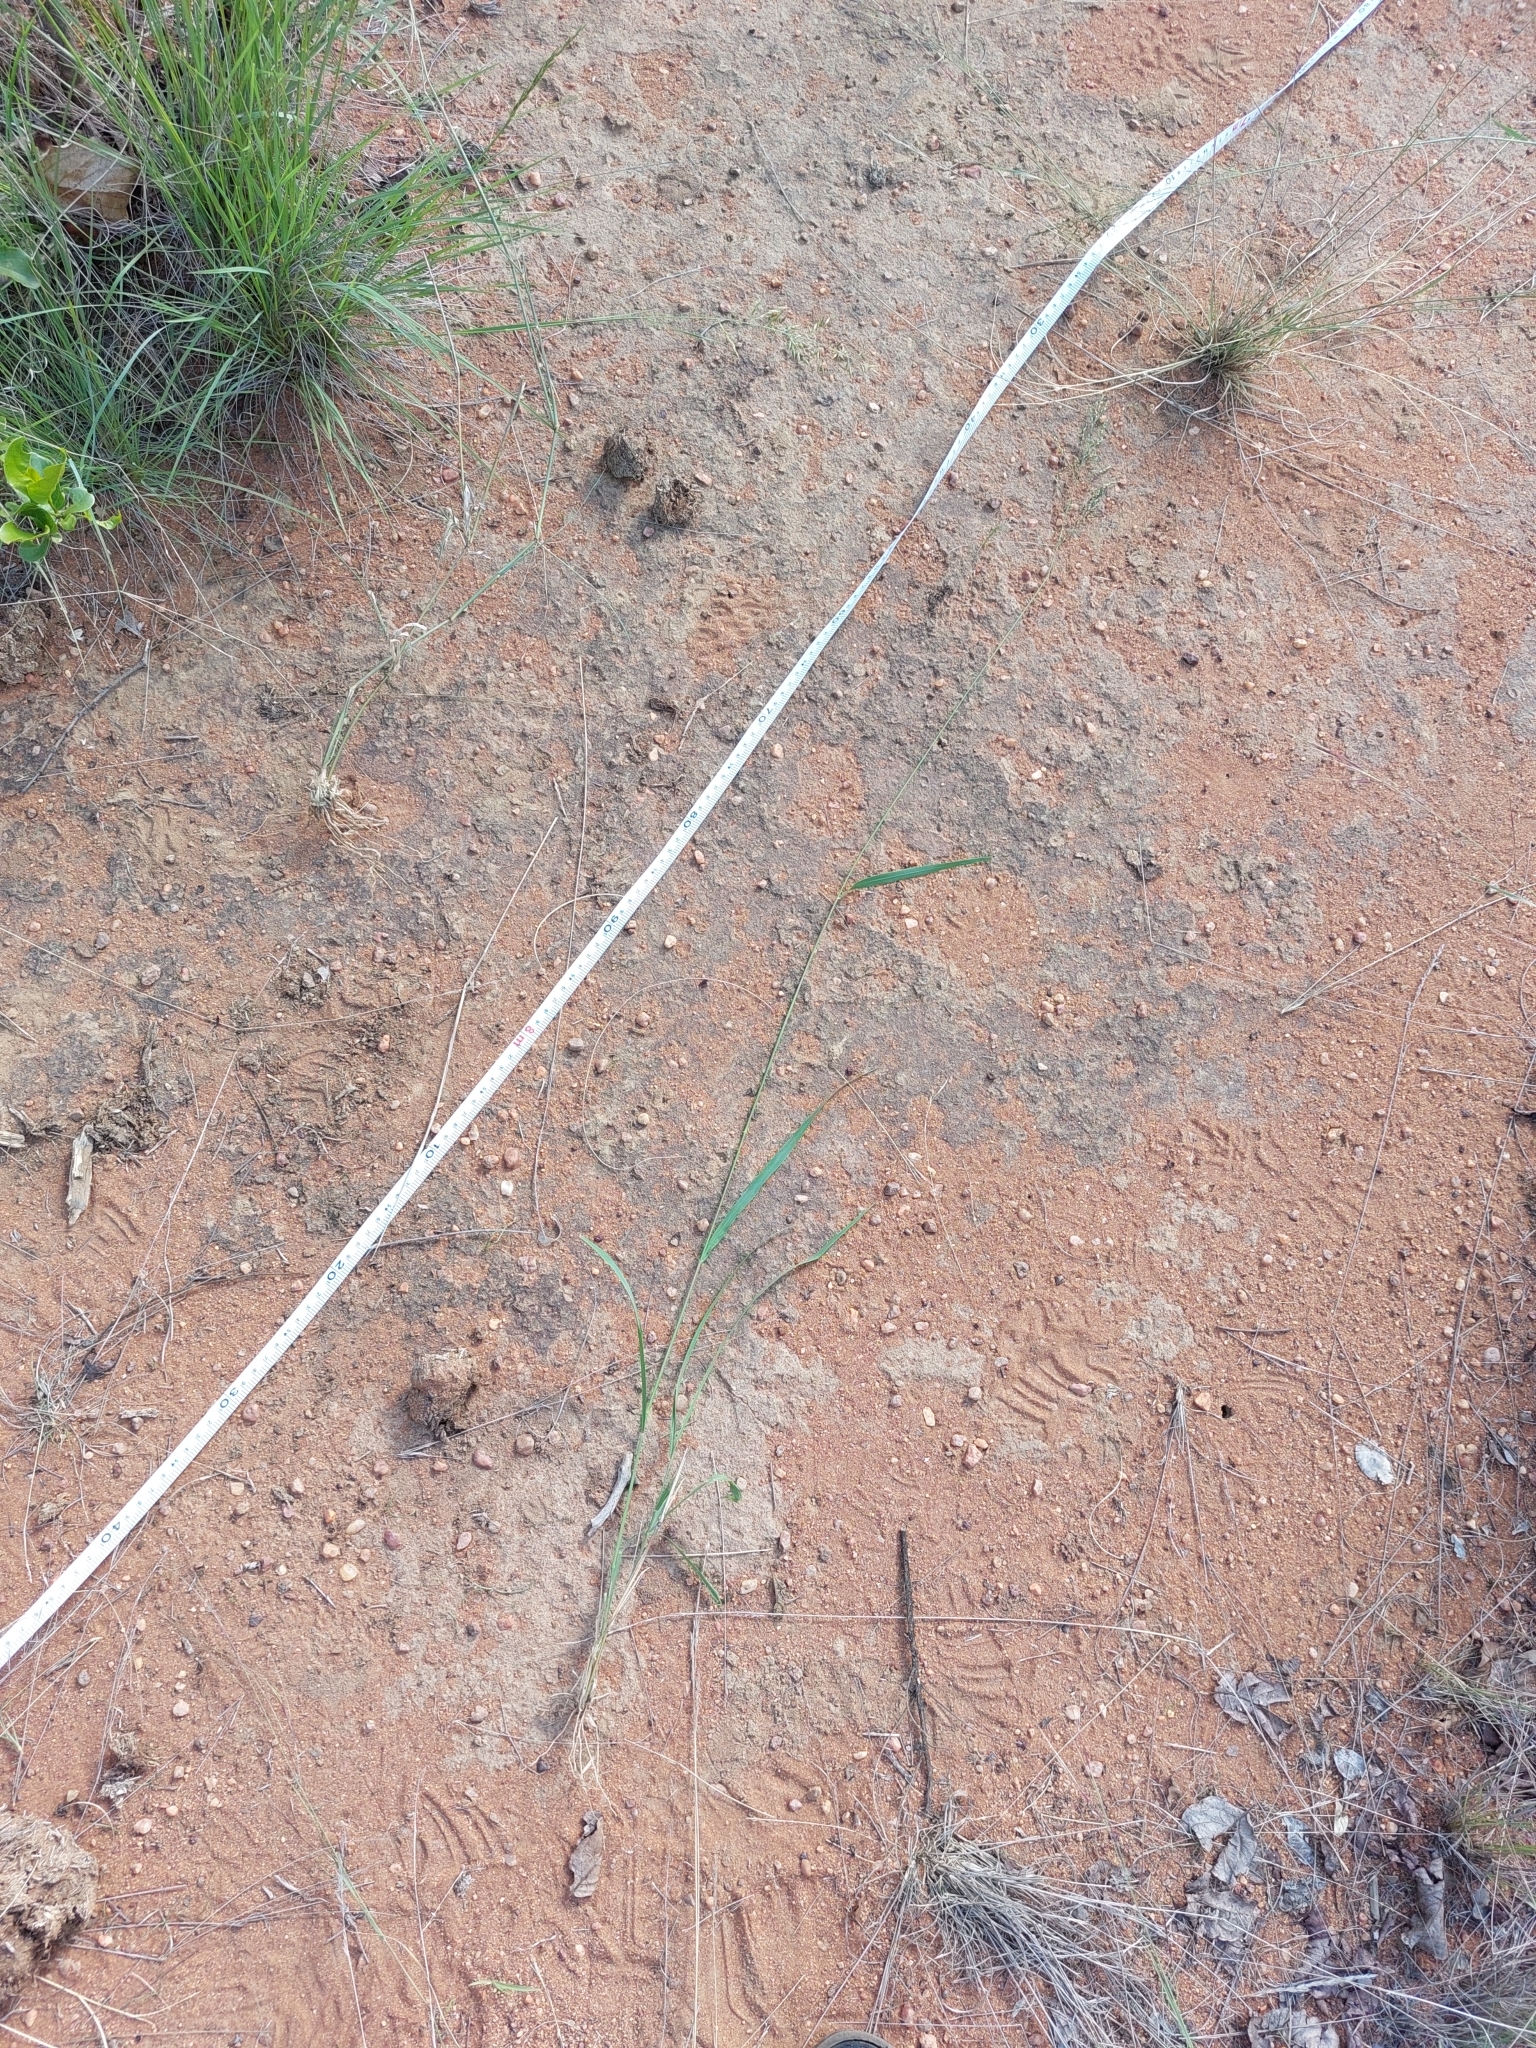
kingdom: Plantae
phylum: Tracheophyta
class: Liliopsida
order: Poales
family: Poaceae
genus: Megathyrsus
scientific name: Megathyrsus maximus
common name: Guineagrass
